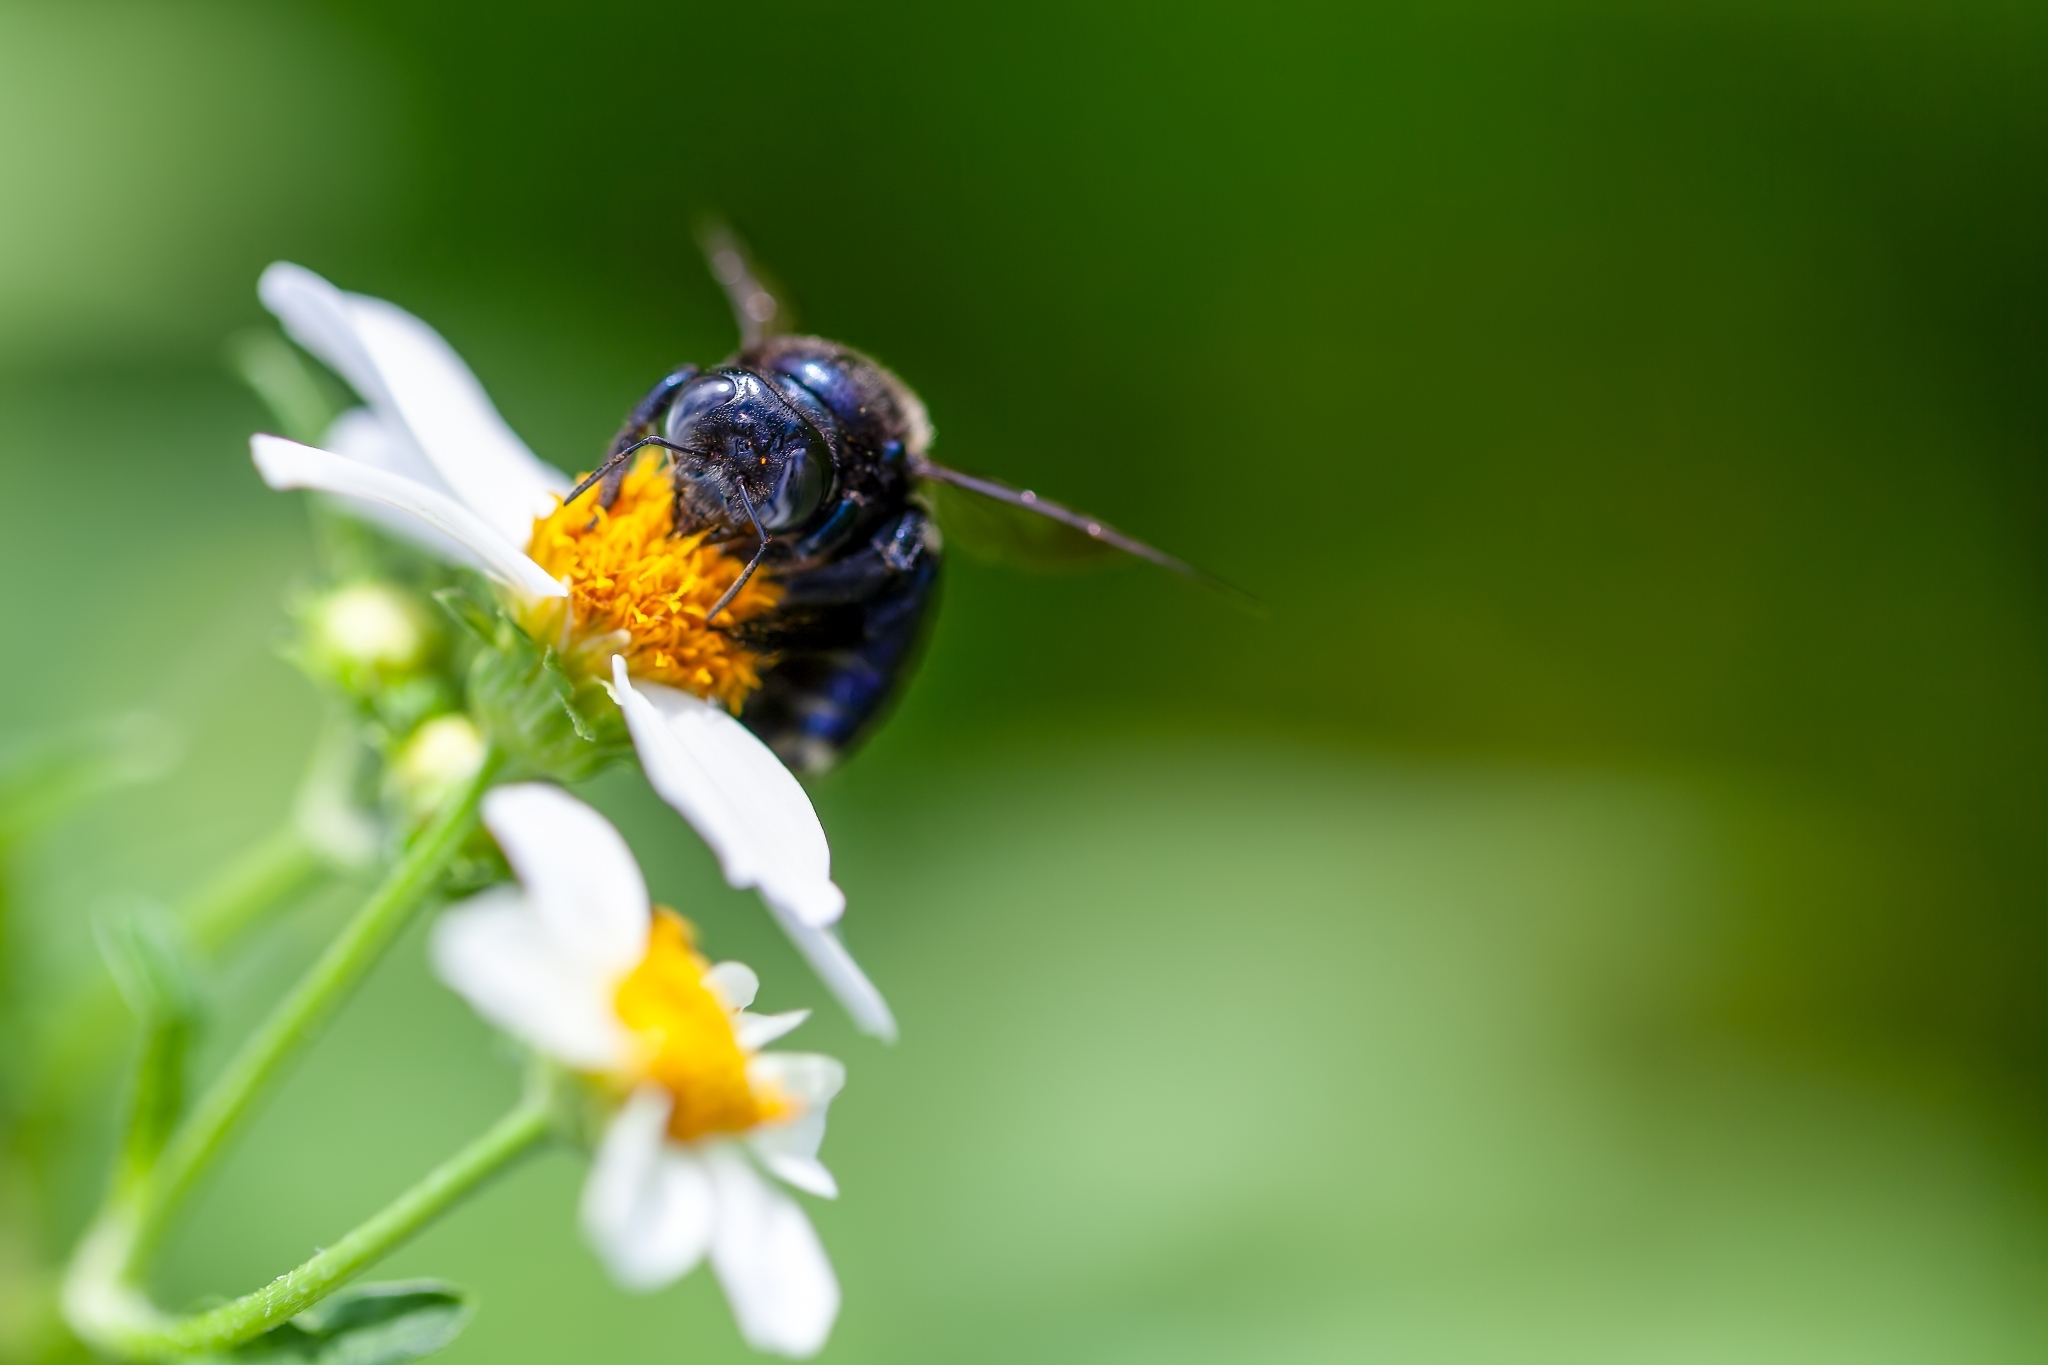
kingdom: Animalia
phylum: Arthropoda
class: Insecta
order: Hymenoptera
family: Apidae
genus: Xylocopa
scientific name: Xylocopa micans
